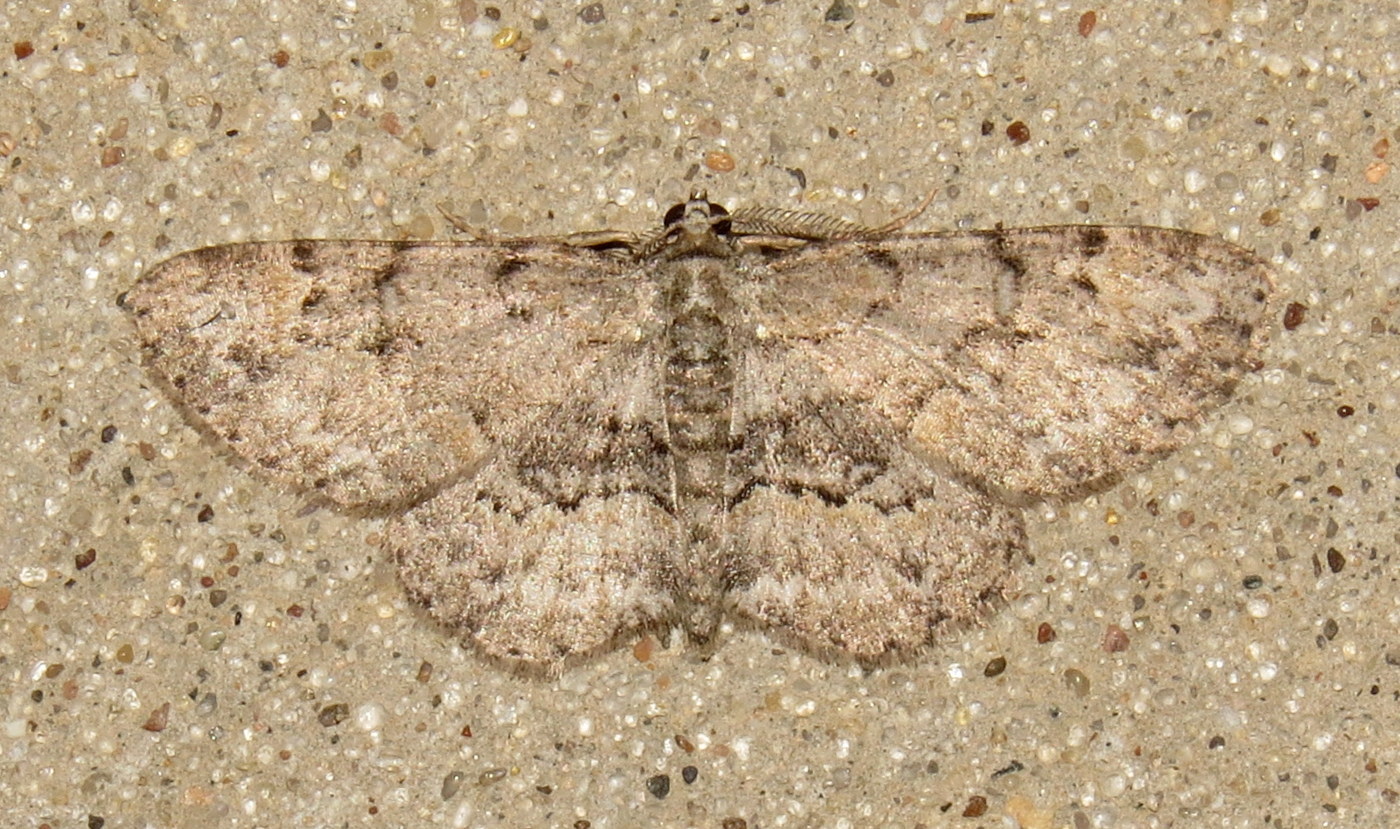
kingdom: Animalia
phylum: Arthropoda
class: Insecta
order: Lepidoptera
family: Geometridae
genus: Iridopsis
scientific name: Iridopsis ephyraria
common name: Pale-winged gray
